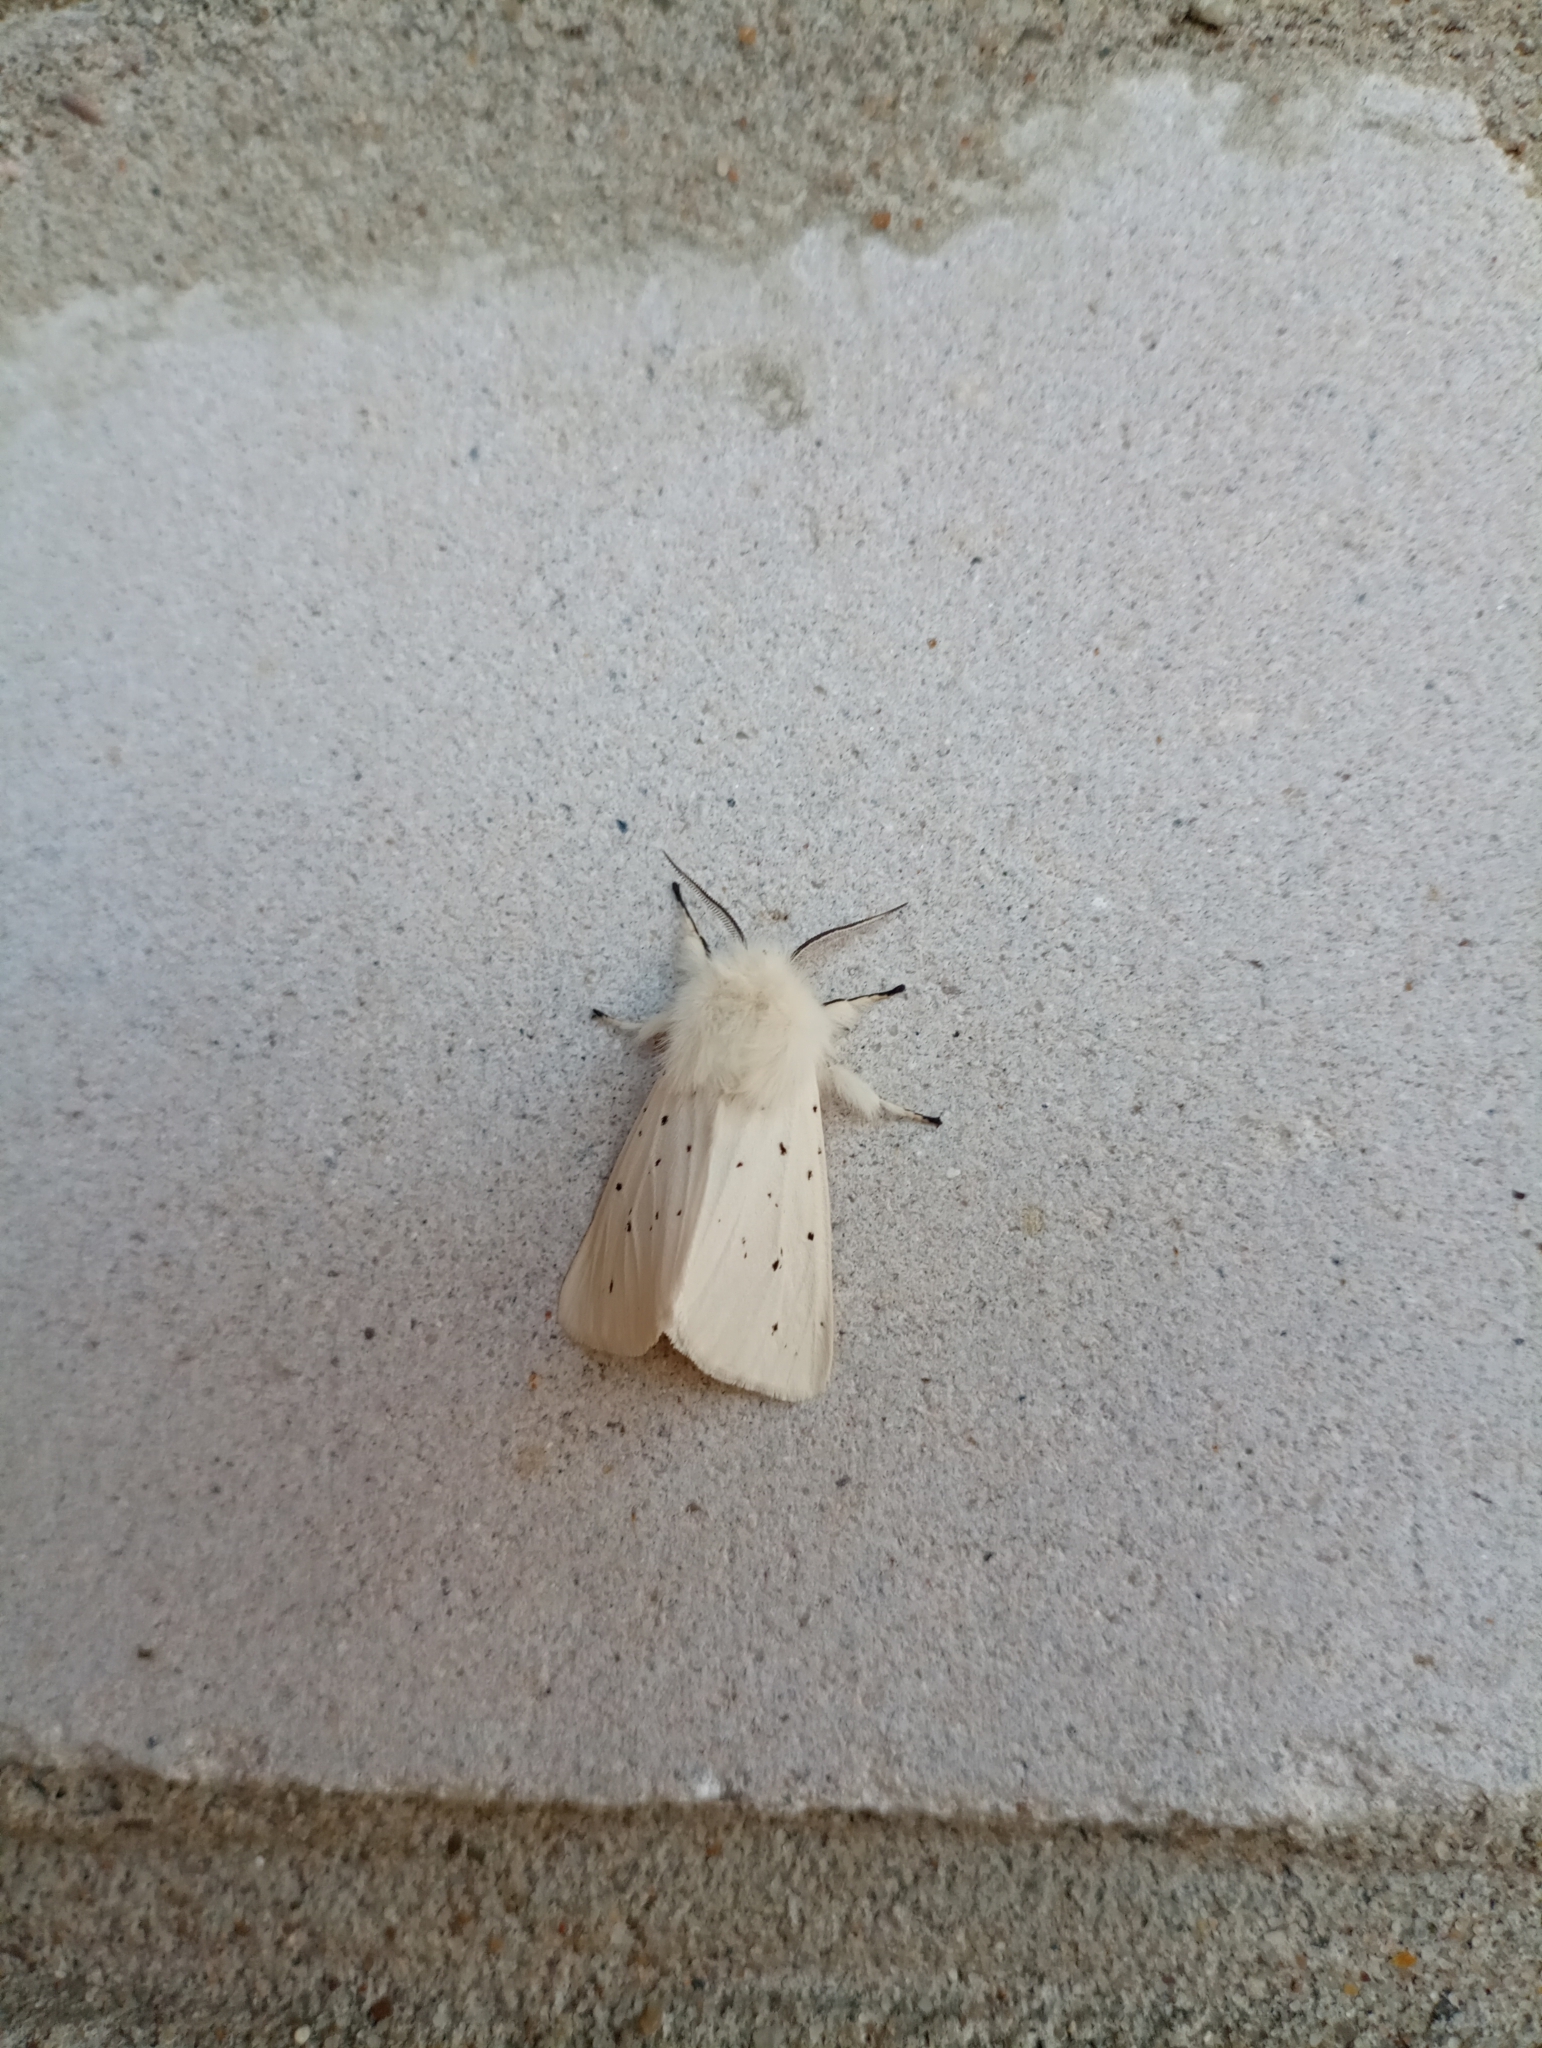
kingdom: Animalia
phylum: Arthropoda
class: Insecta
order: Lepidoptera
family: Erebidae
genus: Spilosoma
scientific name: Spilosoma lubricipeda
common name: White ermine
